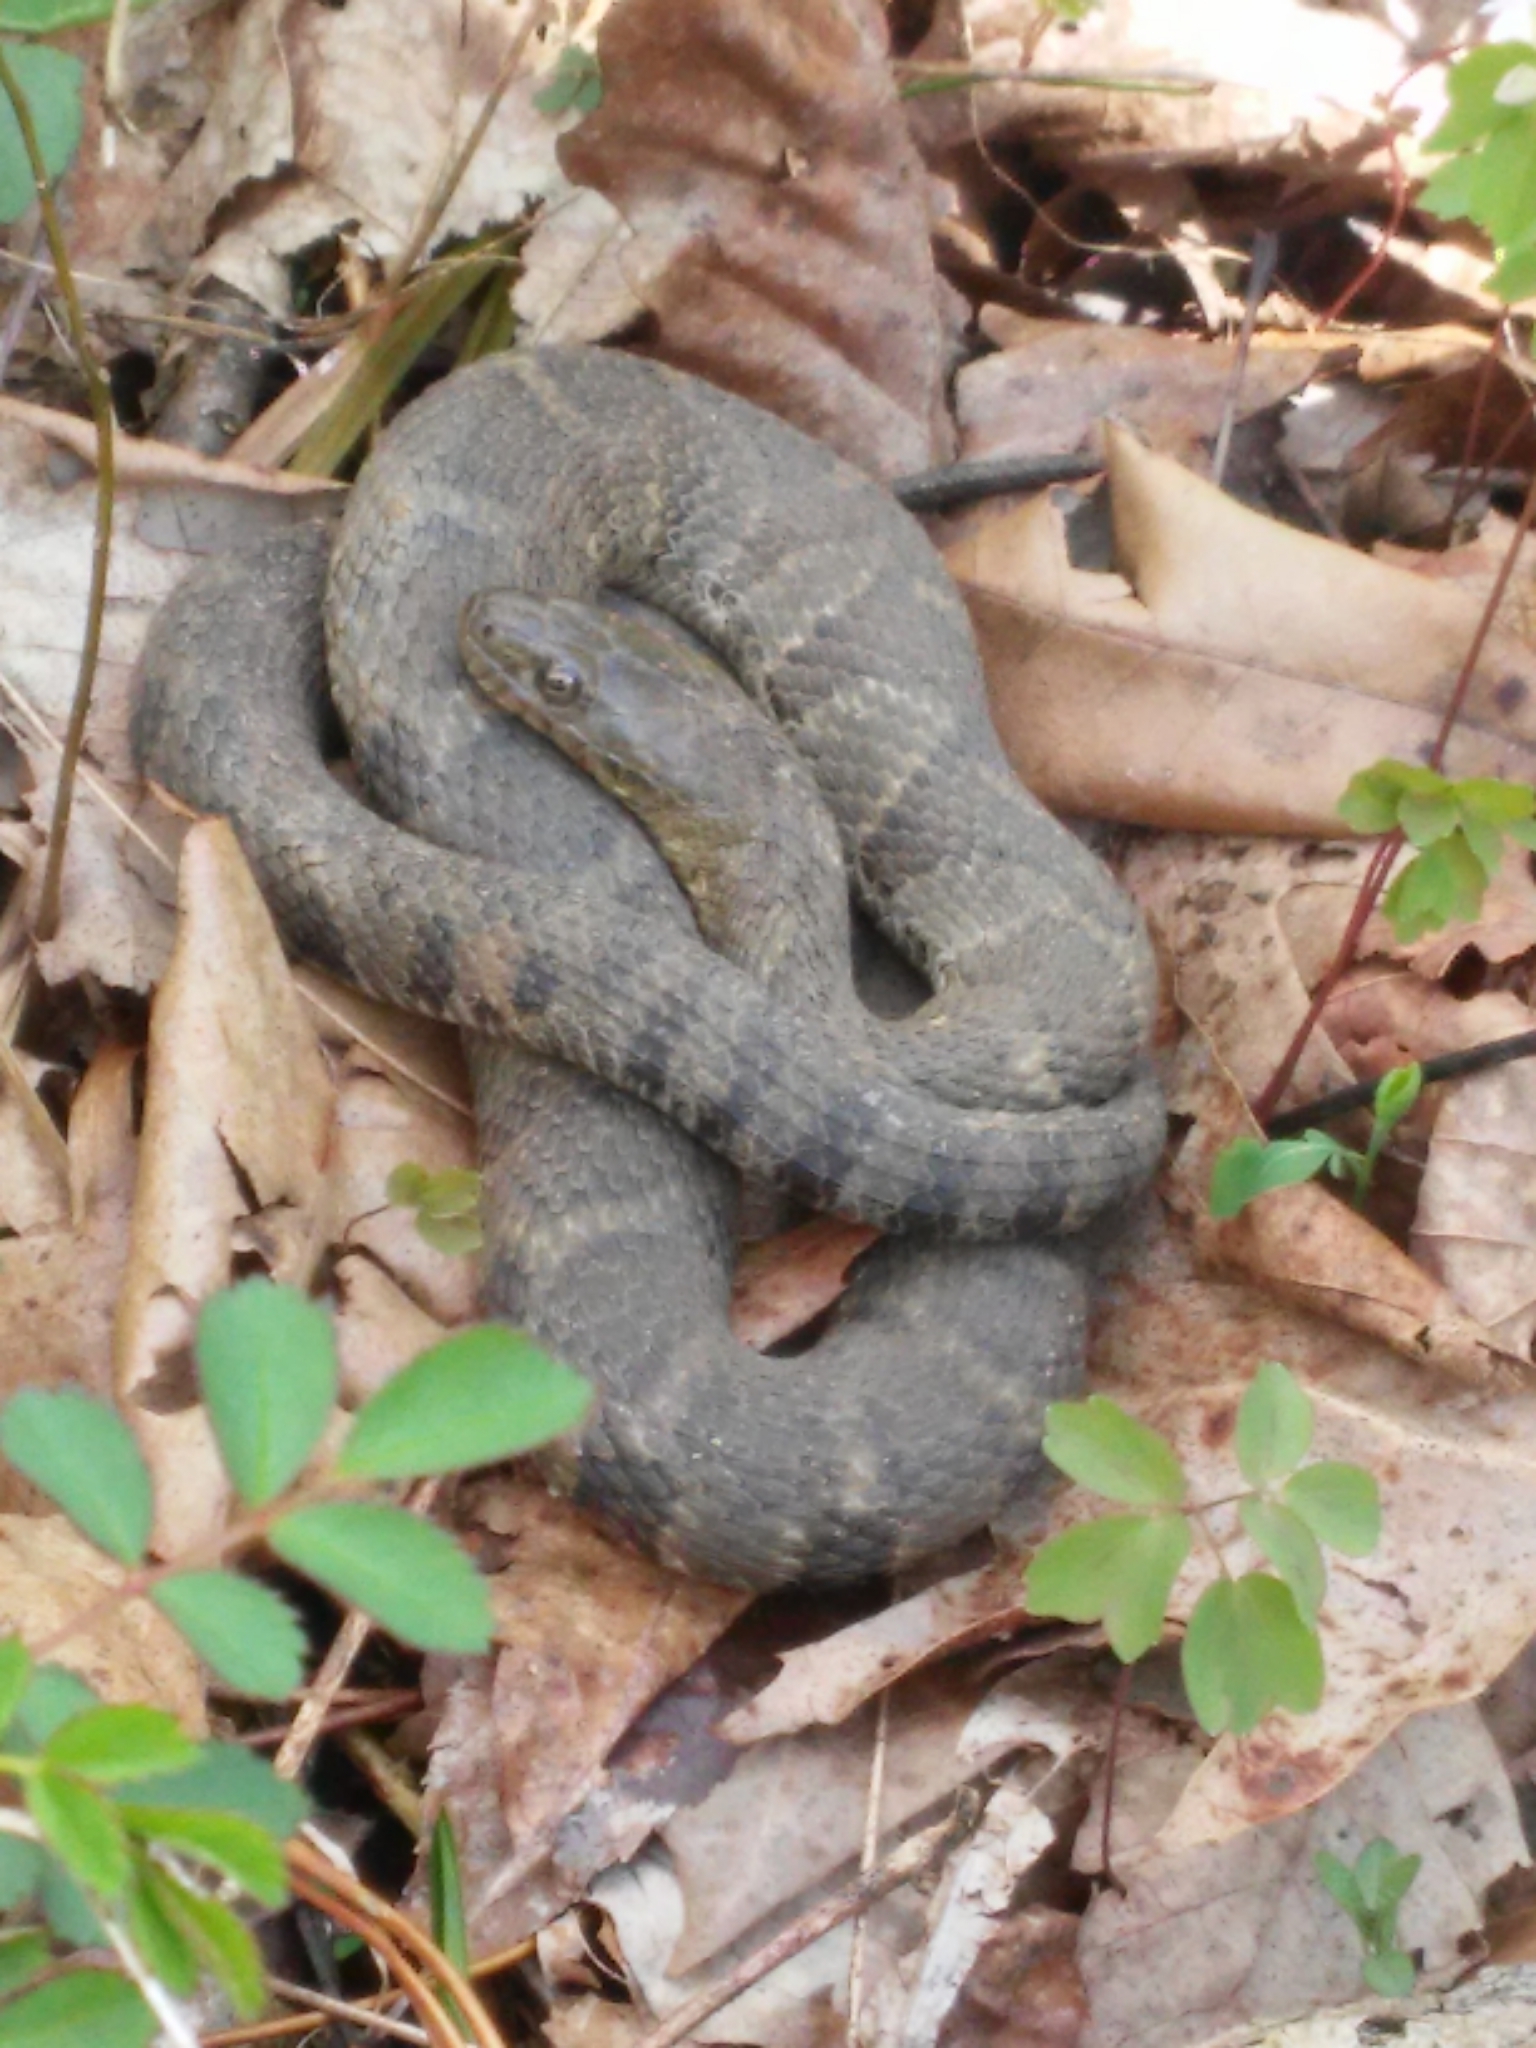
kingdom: Animalia
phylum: Chordata
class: Squamata
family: Colubridae
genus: Nerodia
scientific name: Nerodia sipedon
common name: Northern water snake
